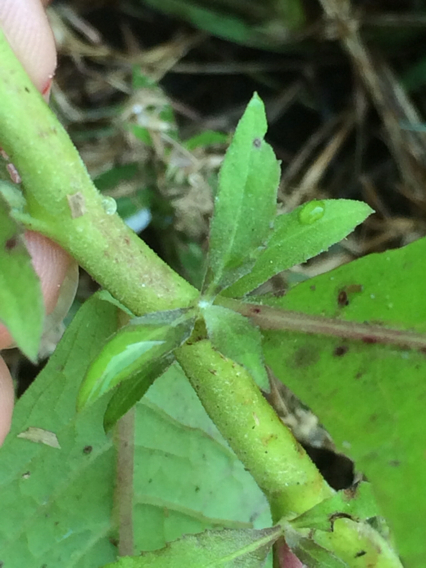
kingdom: Plantae
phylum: Tracheophyta
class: Magnoliopsida
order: Asterales
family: Asteraceae
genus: Pluchea
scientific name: Pluchea odorata
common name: Saltmarsh fleabane
